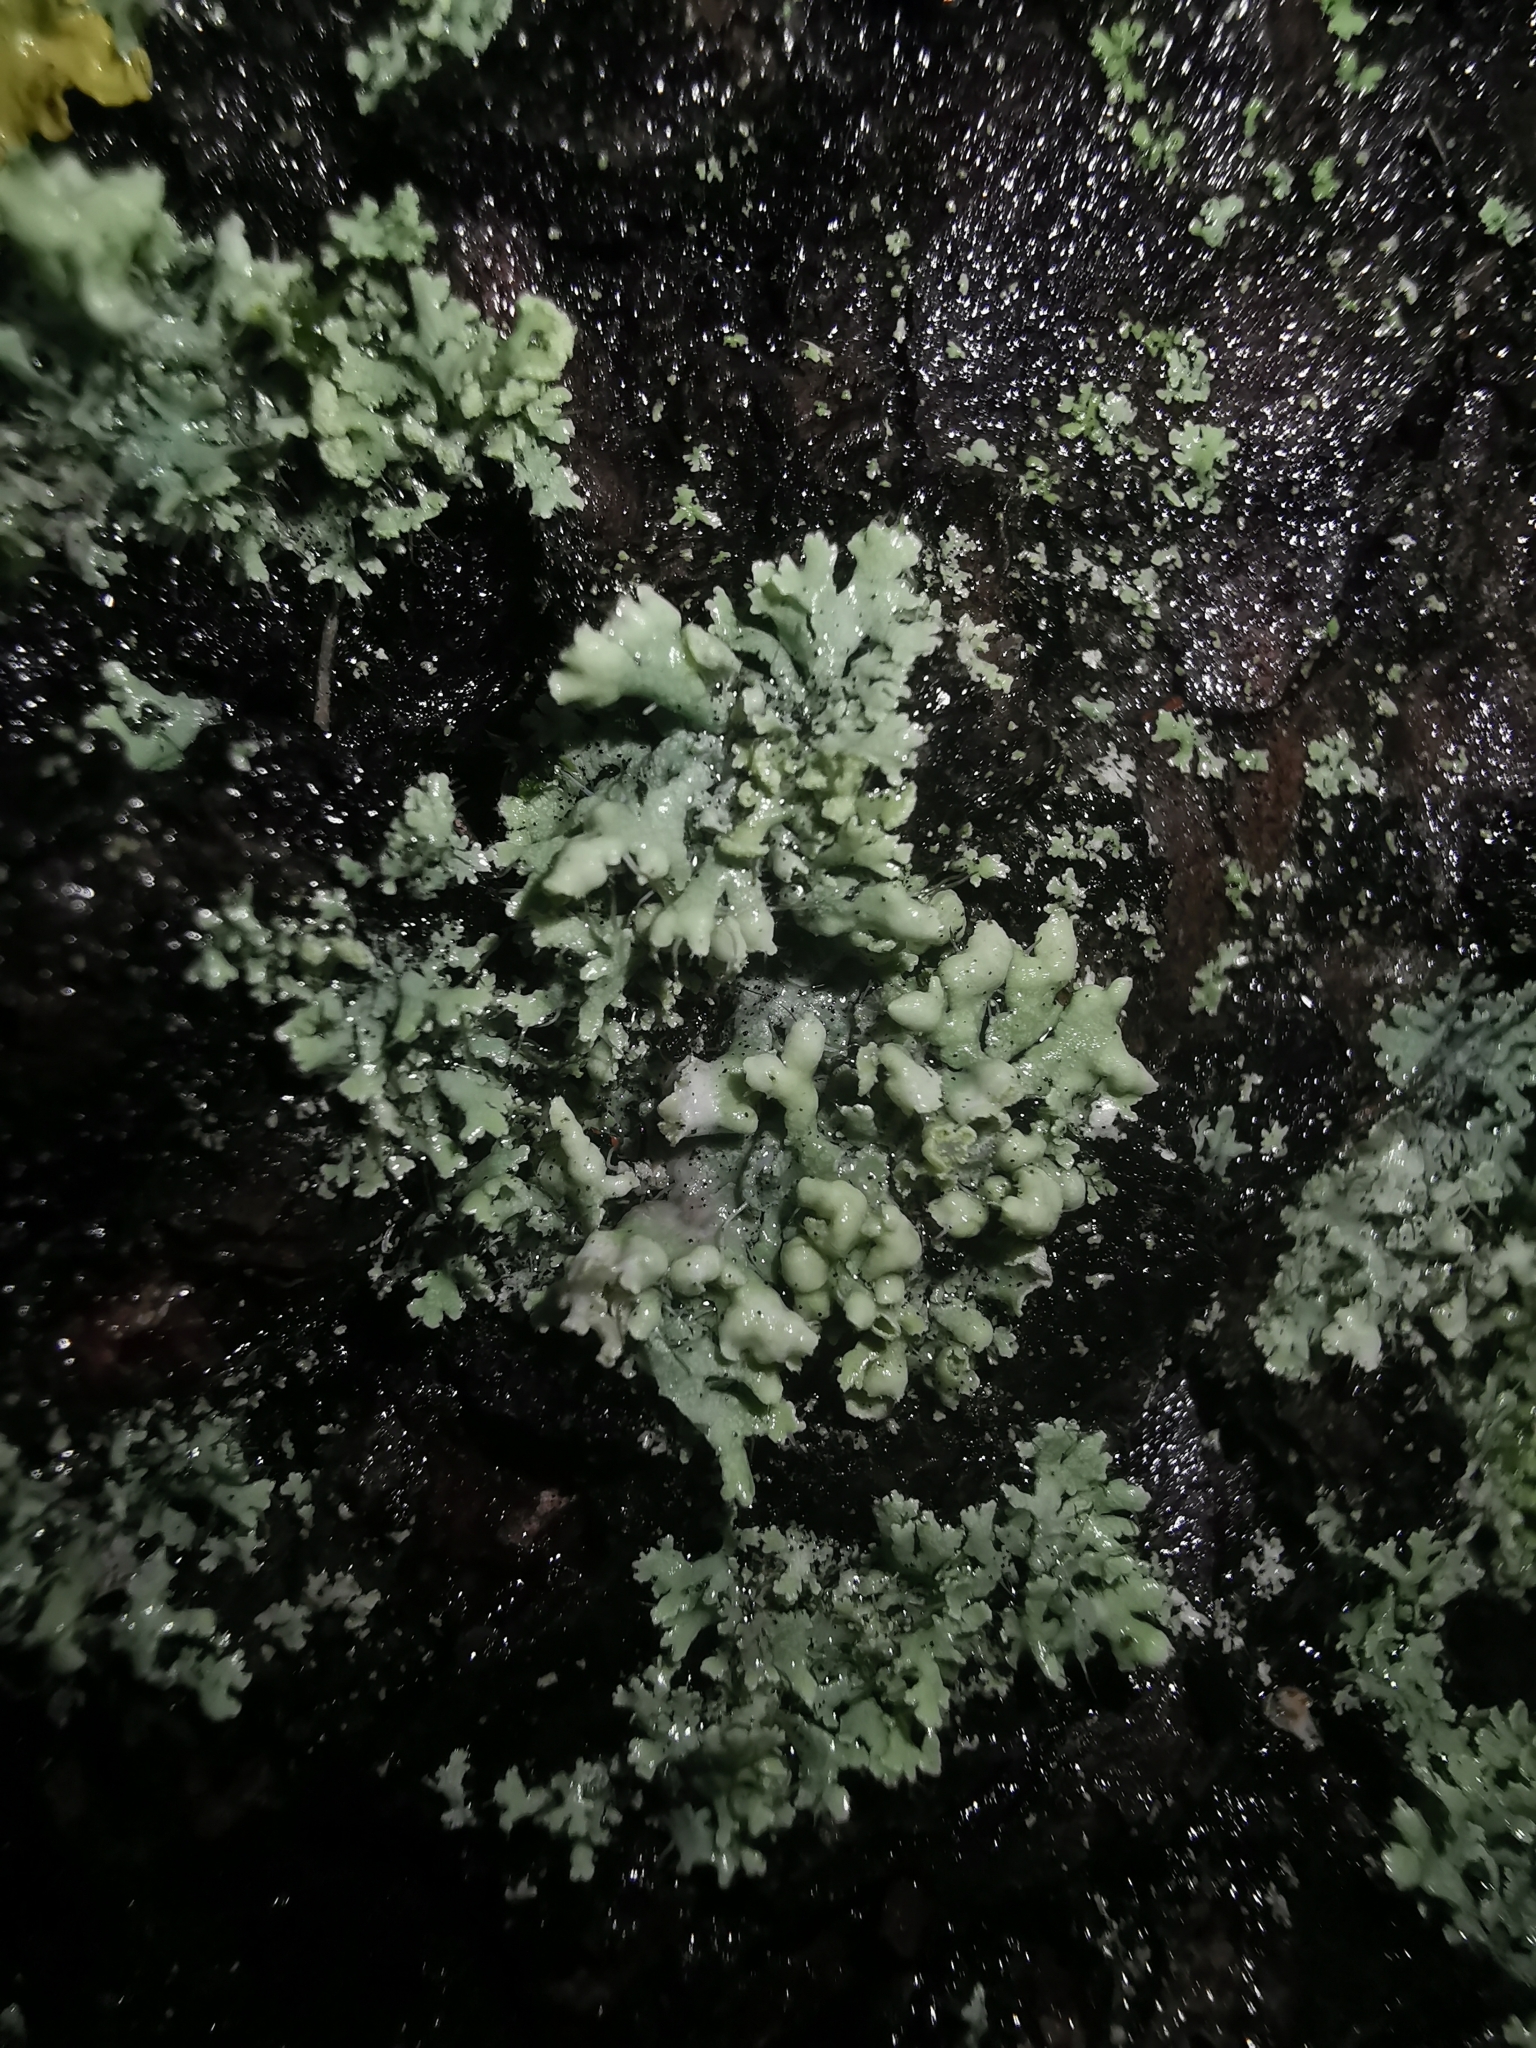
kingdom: Fungi
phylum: Ascomycota
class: Lecanoromycetes
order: Caliciales
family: Physciaceae
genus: Physcia
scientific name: Physcia adscendens
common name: Hooded rosette lichen
